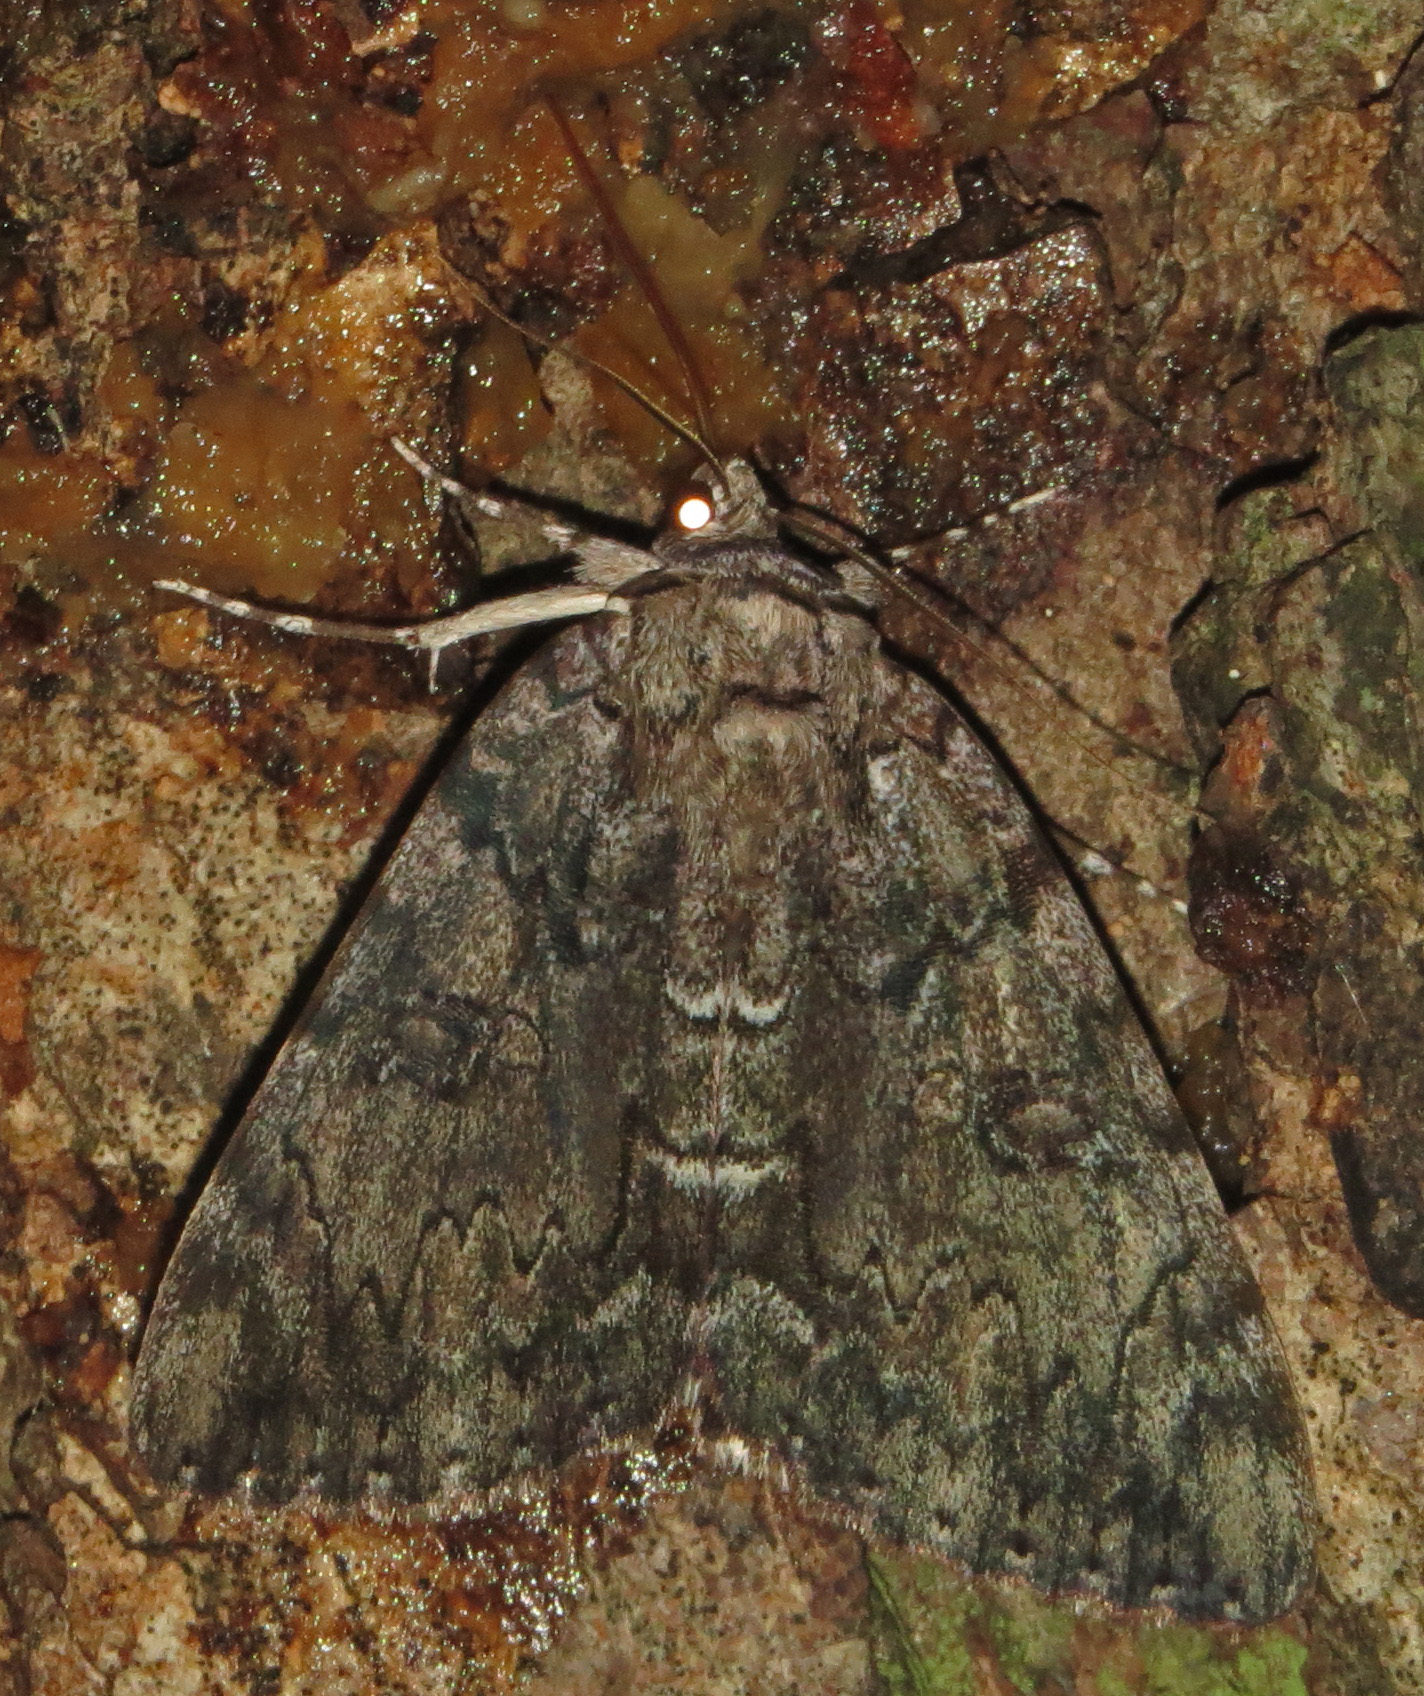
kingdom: Animalia
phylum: Arthropoda
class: Insecta
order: Lepidoptera
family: Erebidae
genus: Catocala
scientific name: Catocala lacrymosa
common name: Tearful underwing
